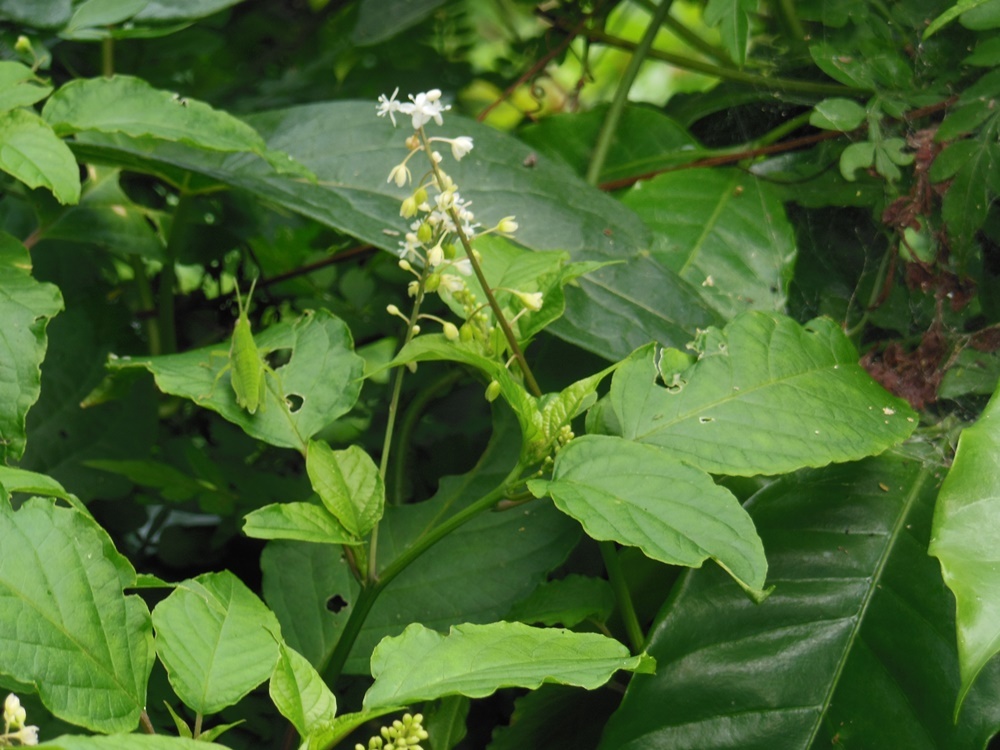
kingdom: Plantae
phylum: Tracheophyta
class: Magnoliopsida
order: Caryophyllales
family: Phytolaccaceae
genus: Rivina
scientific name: Rivina humilis
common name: Rougeplant
